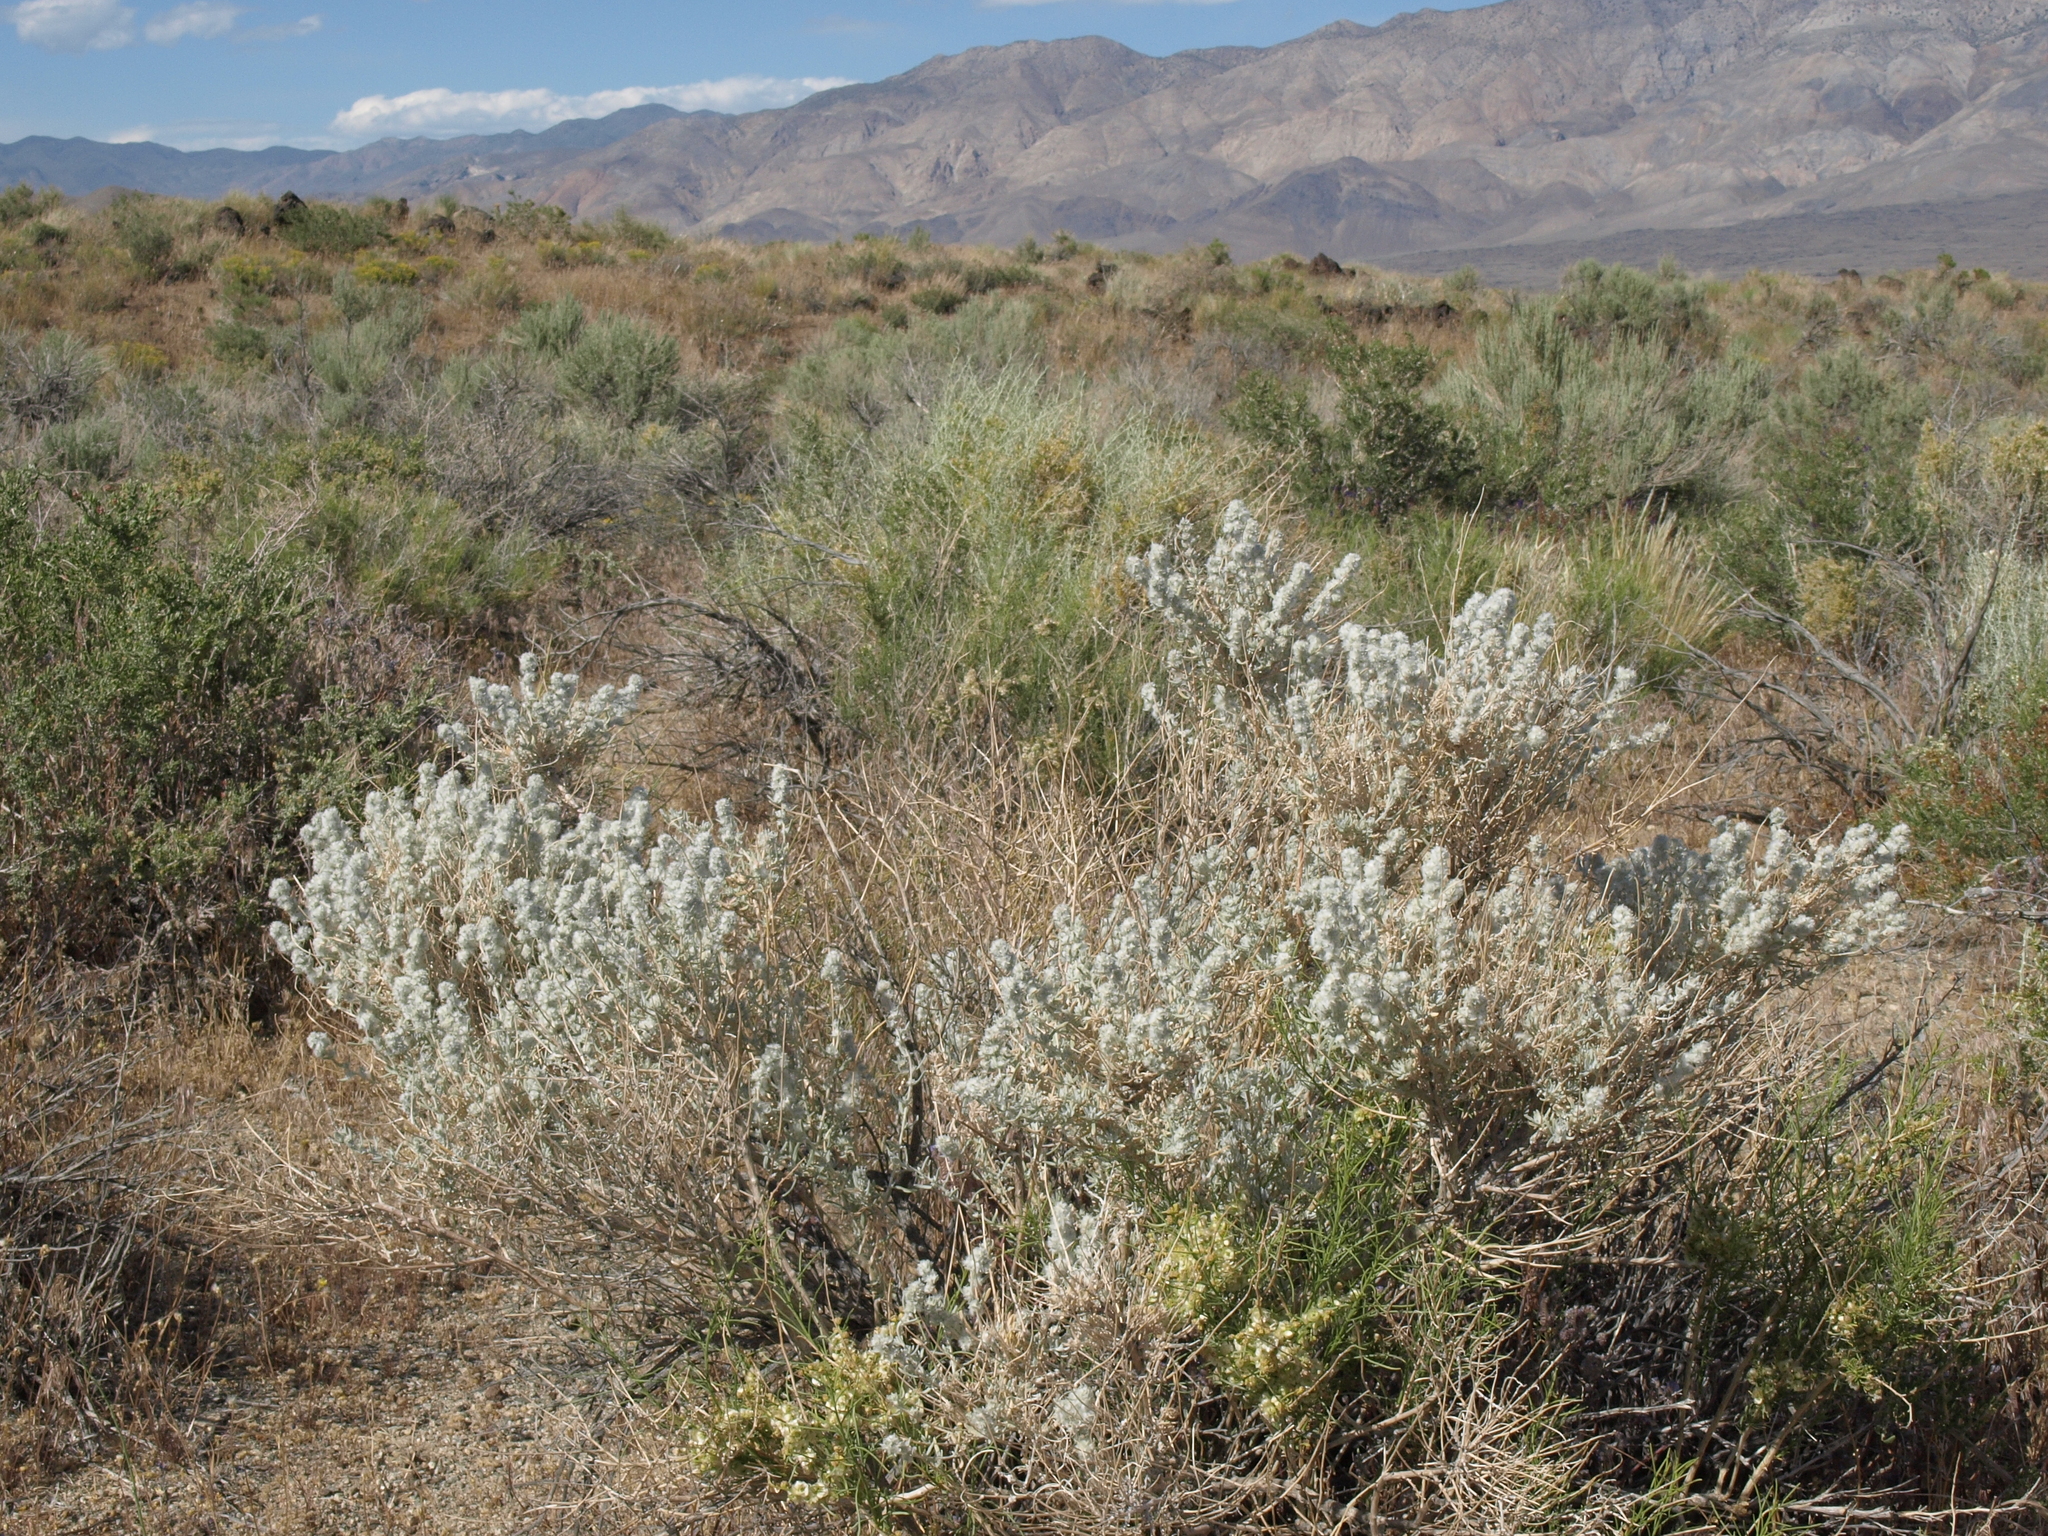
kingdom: Plantae
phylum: Tracheophyta
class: Magnoliopsida
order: Caryophyllales
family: Amaranthaceae
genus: Krascheninnikovia
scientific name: Krascheninnikovia lanata
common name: Winterfat
